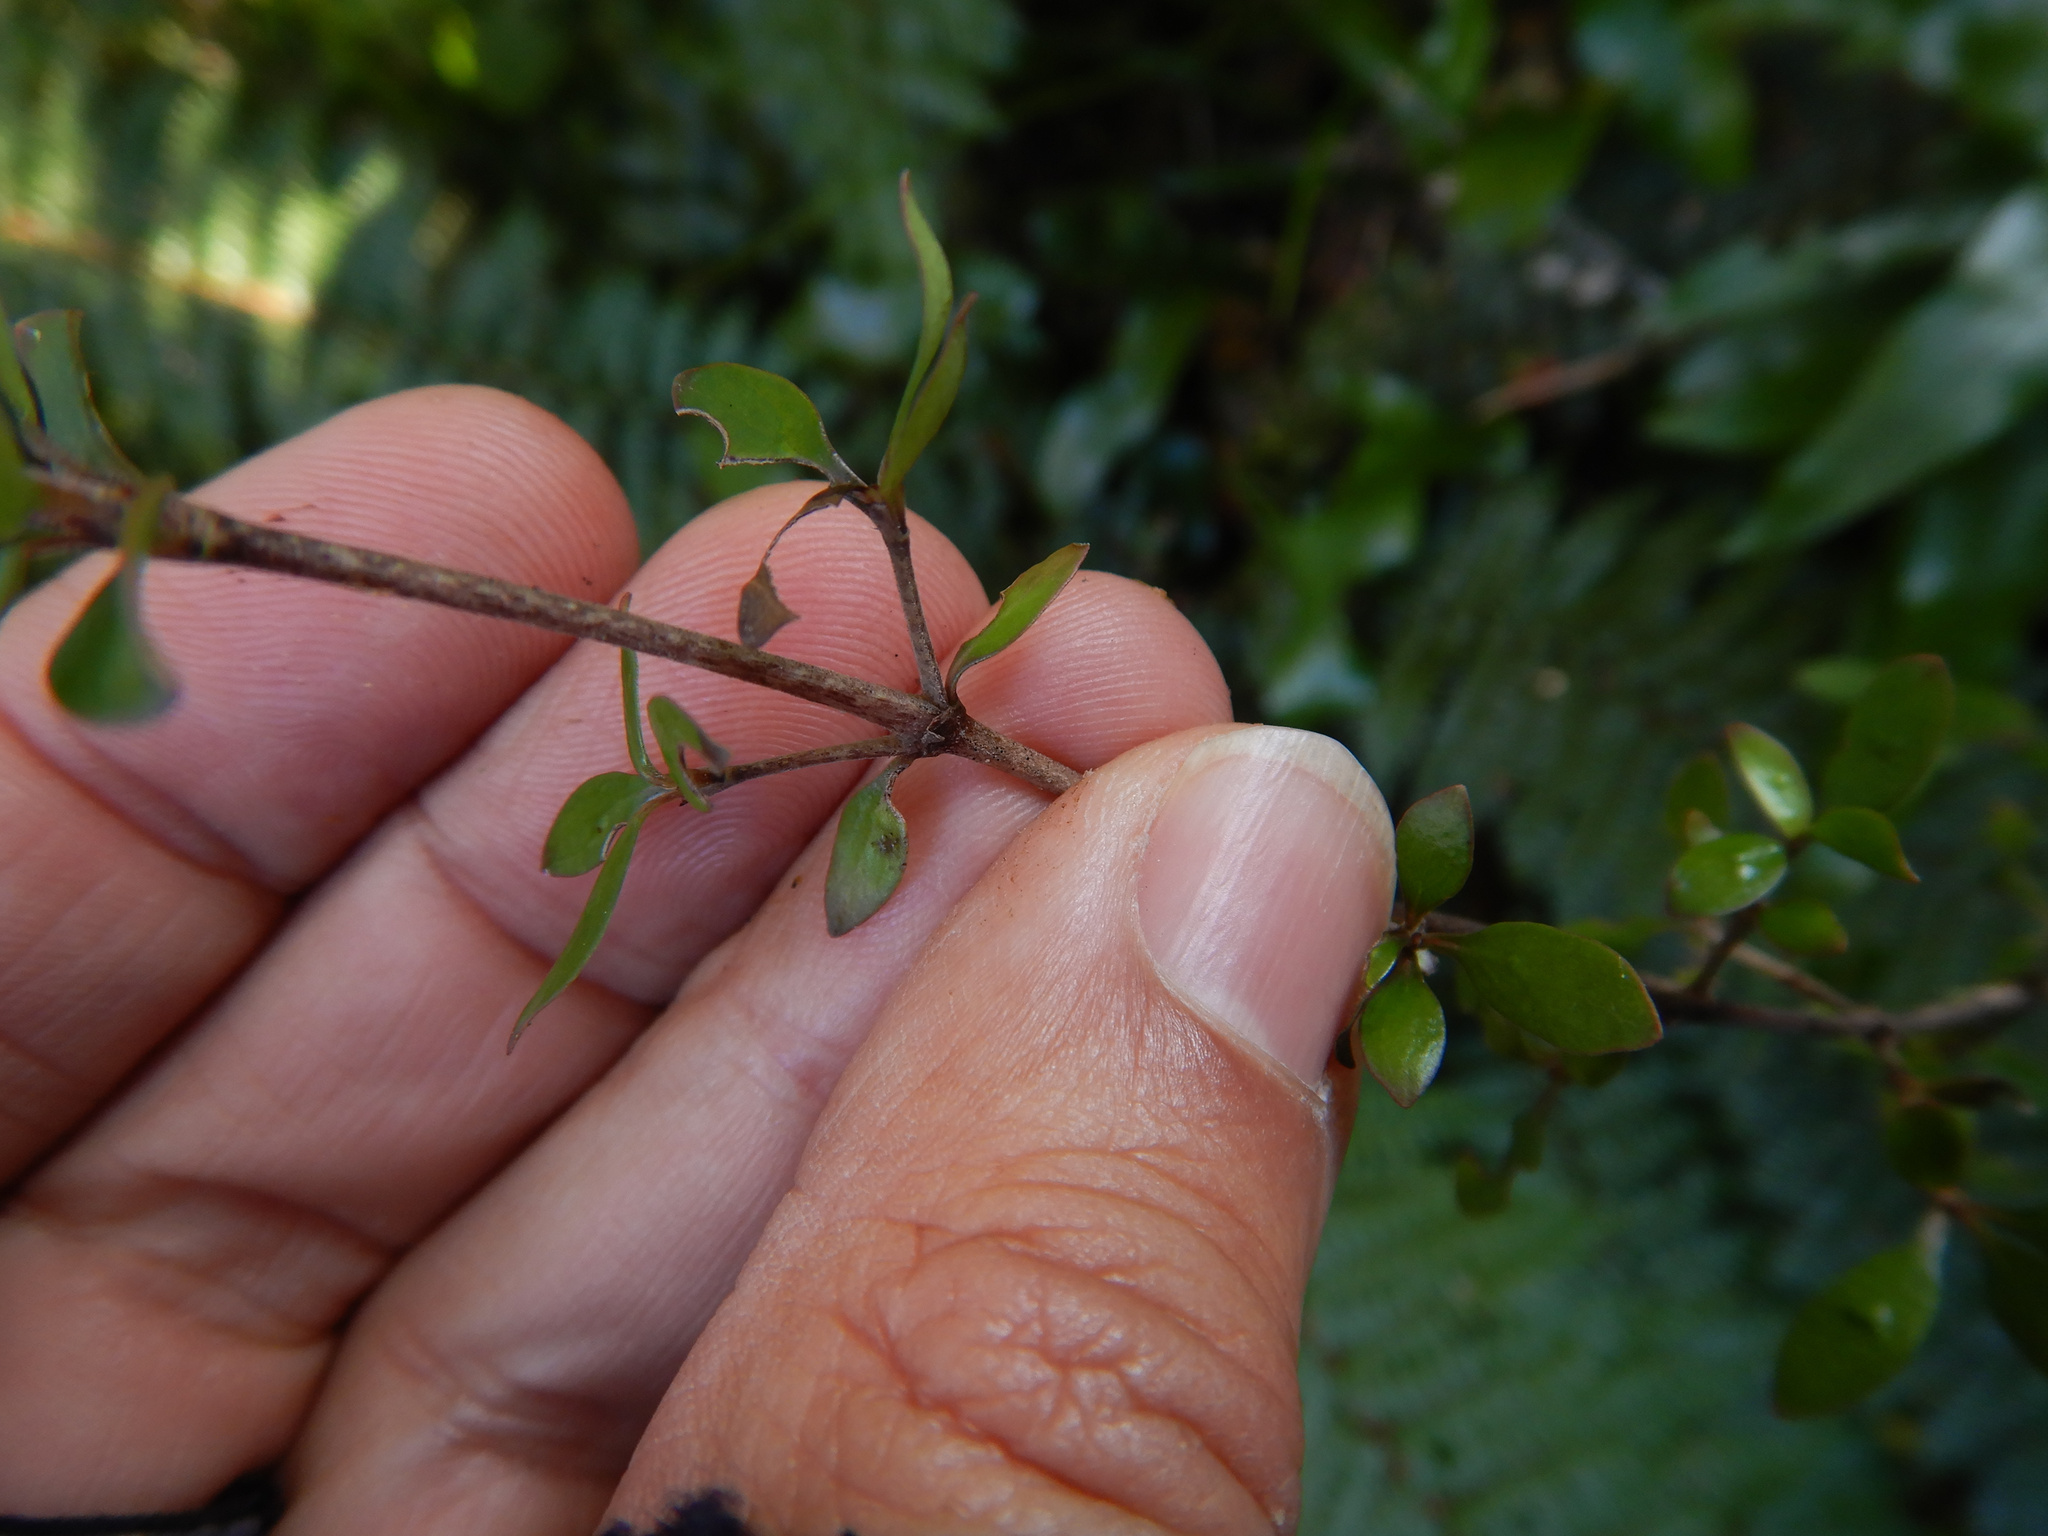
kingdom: Plantae
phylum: Tracheophyta
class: Magnoliopsida
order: Gentianales
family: Rubiaceae
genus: Coprosma
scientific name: Coprosma propinqua
